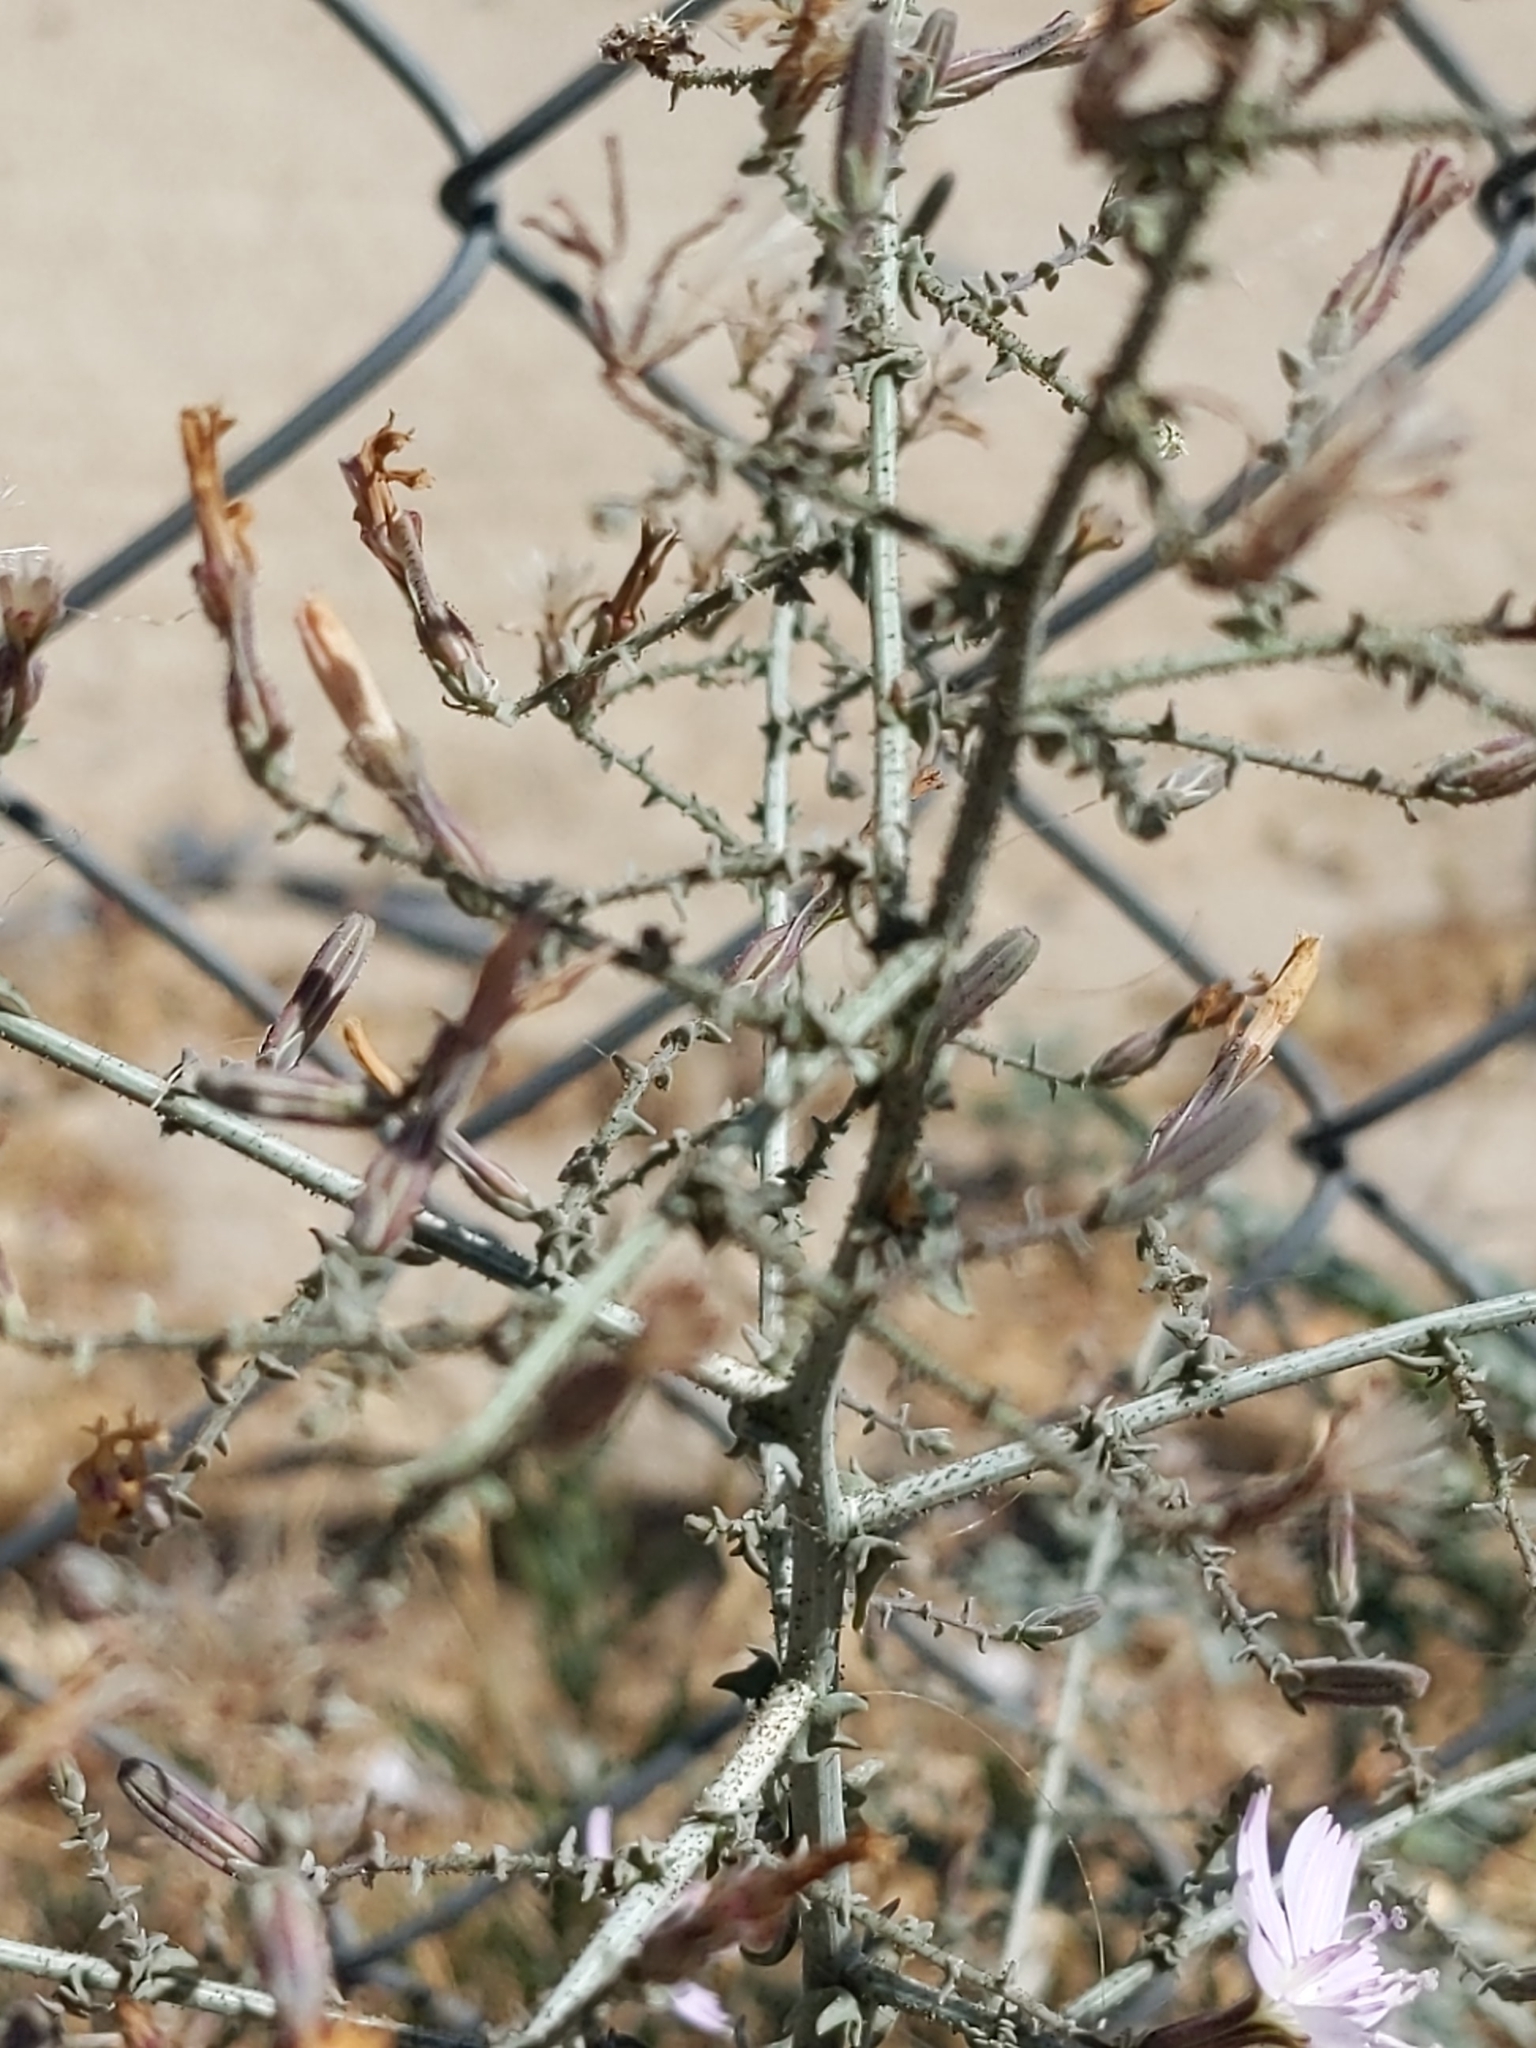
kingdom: Plantae
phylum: Tracheophyta
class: Magnoliopsida
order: Asterales
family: Asteraceae
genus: Stephanomeria
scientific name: Stephanomeria exigua
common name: Small wirelettuce
